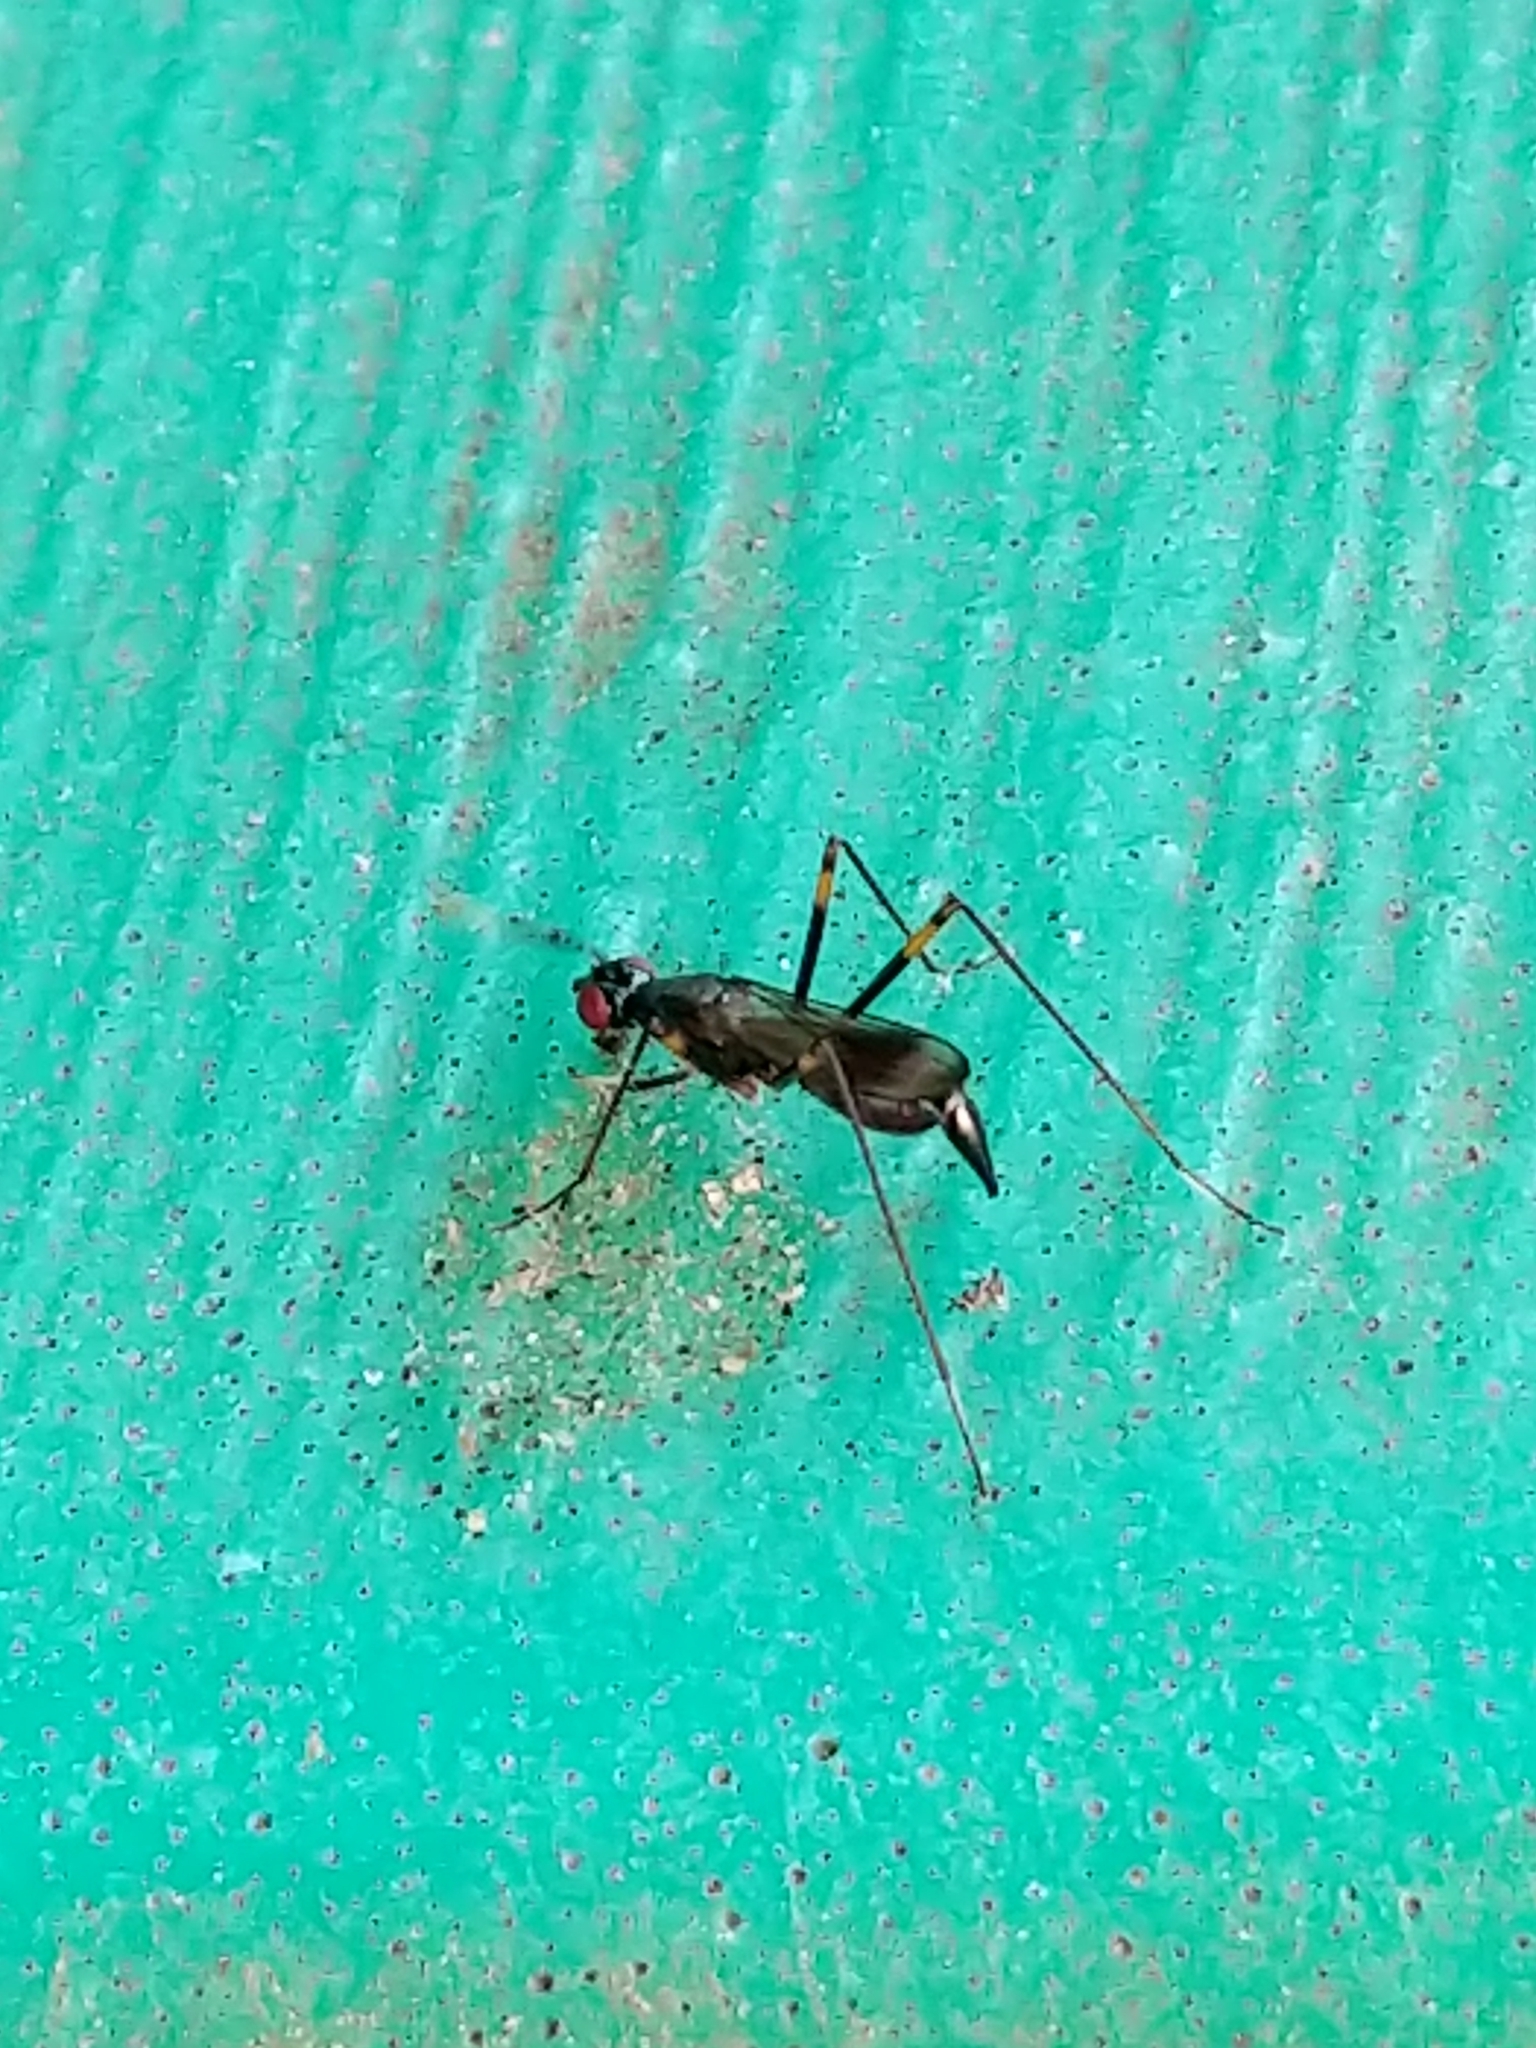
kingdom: Animalia
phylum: Arthropoda
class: Insecta
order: Diptera
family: Micropezidae
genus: Rainieria
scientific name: Rainieria antennaepes
